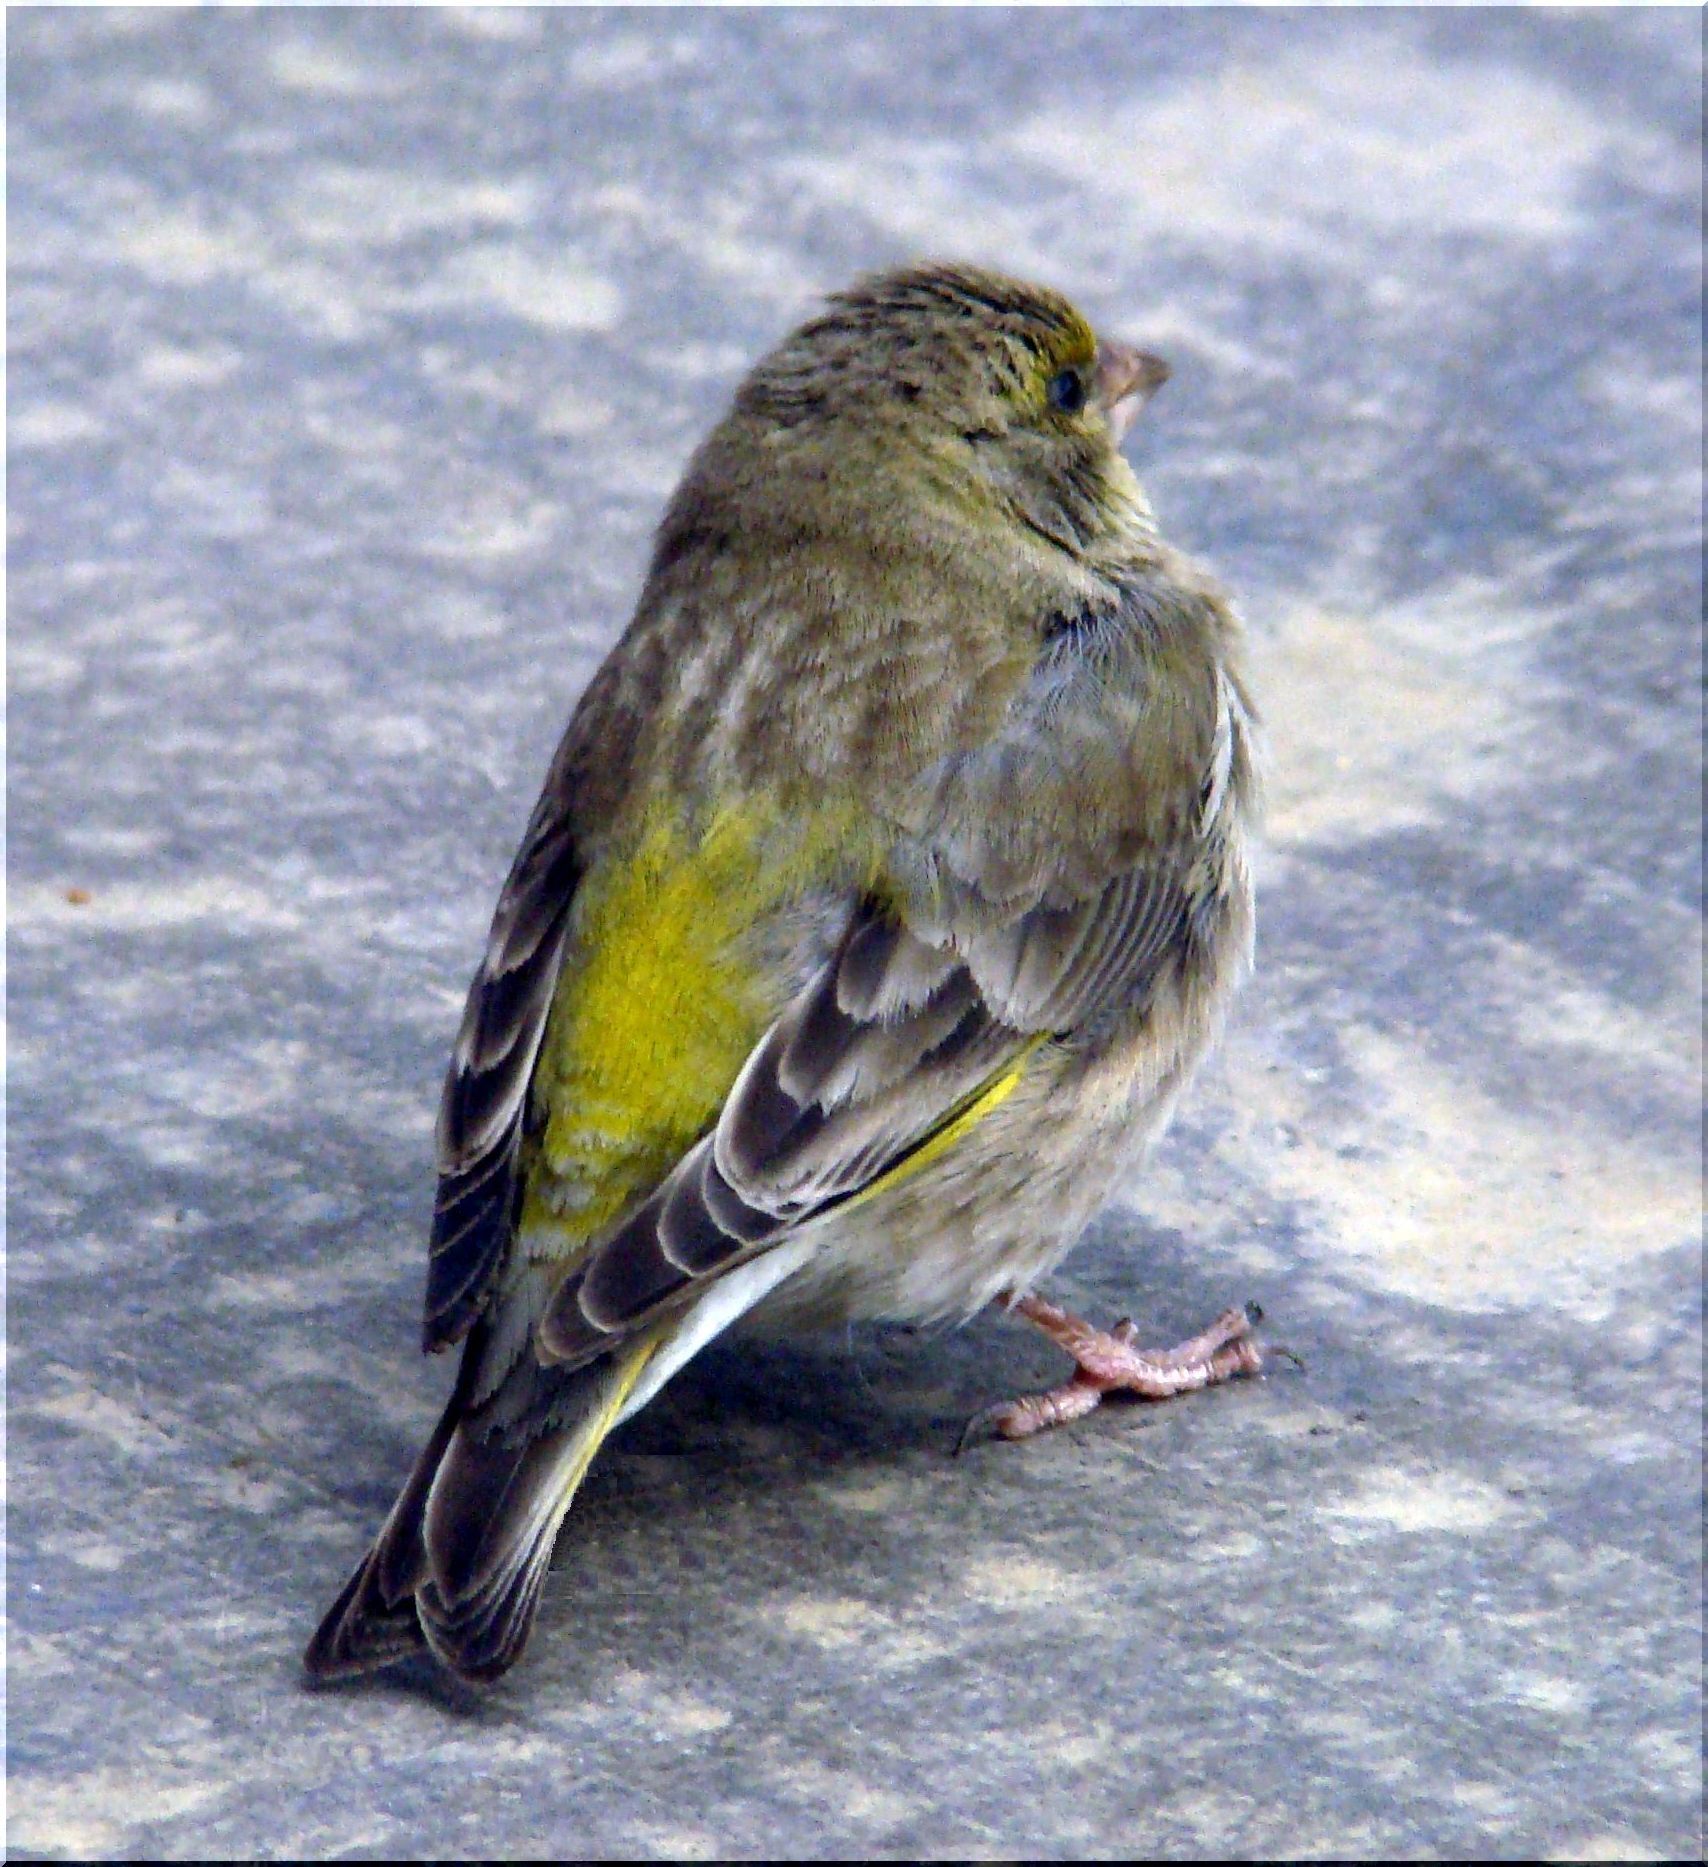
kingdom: Plantae
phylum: Tracheophyta
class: Liliopsida
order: Poales
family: Poaceae
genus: Chloris
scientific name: Chloris chloris
